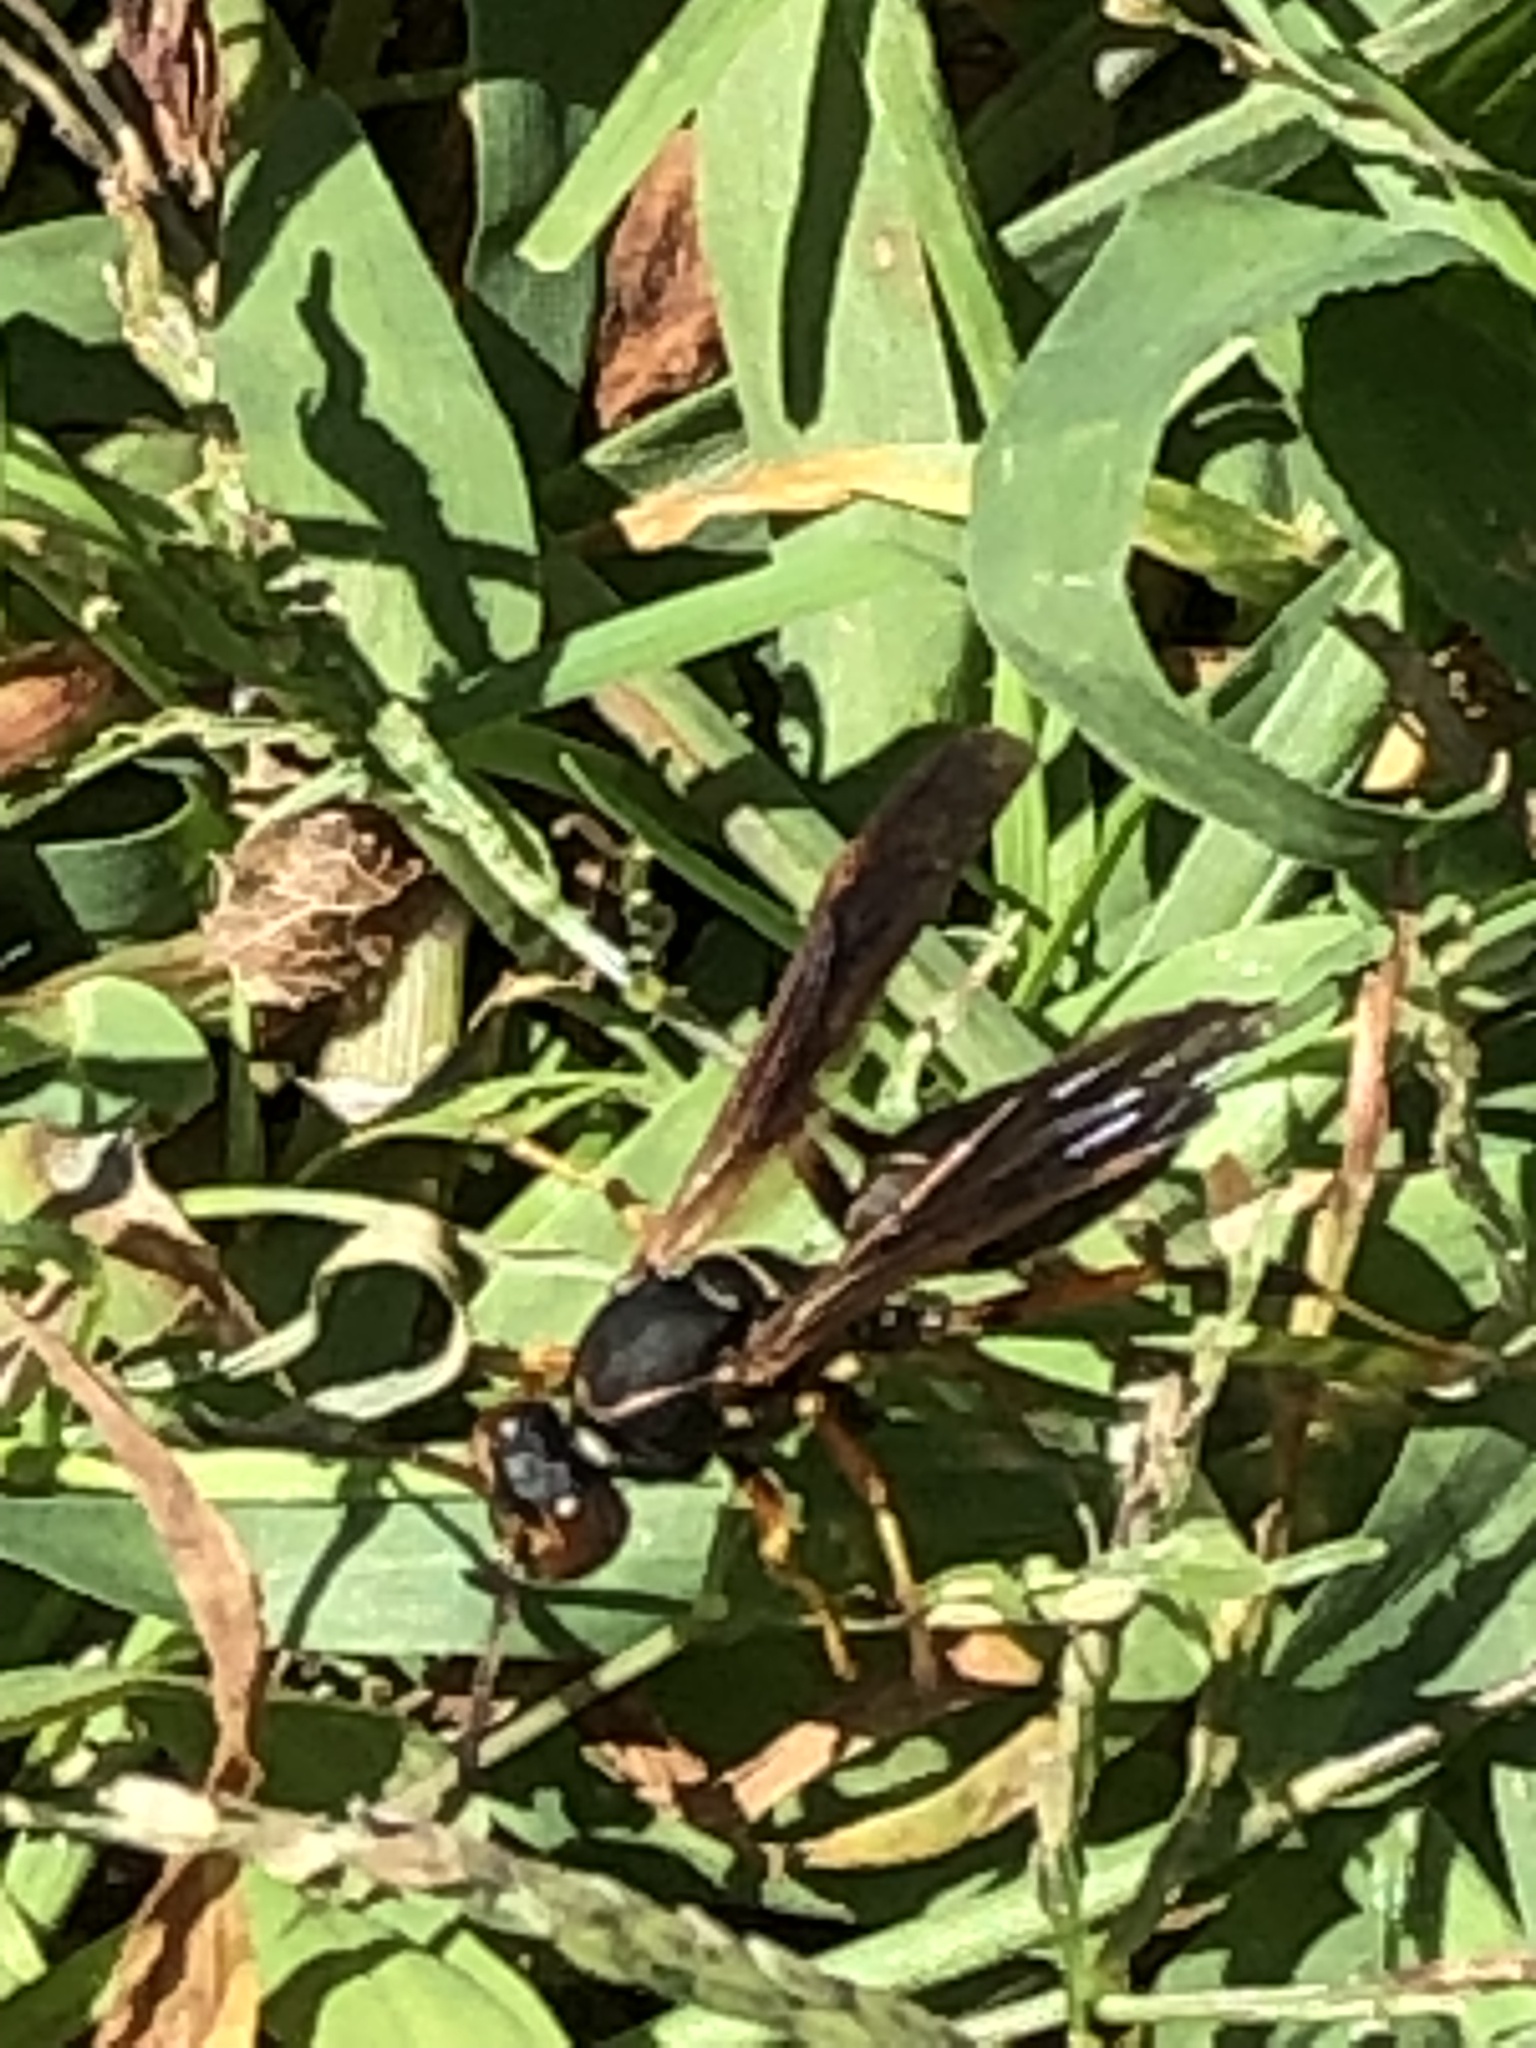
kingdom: Animalia
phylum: Arthropoda
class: Insecta
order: Hymenoptera
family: Eumenidae
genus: Polistes
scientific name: Polistes fuscatus
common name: Dark paper wasp
